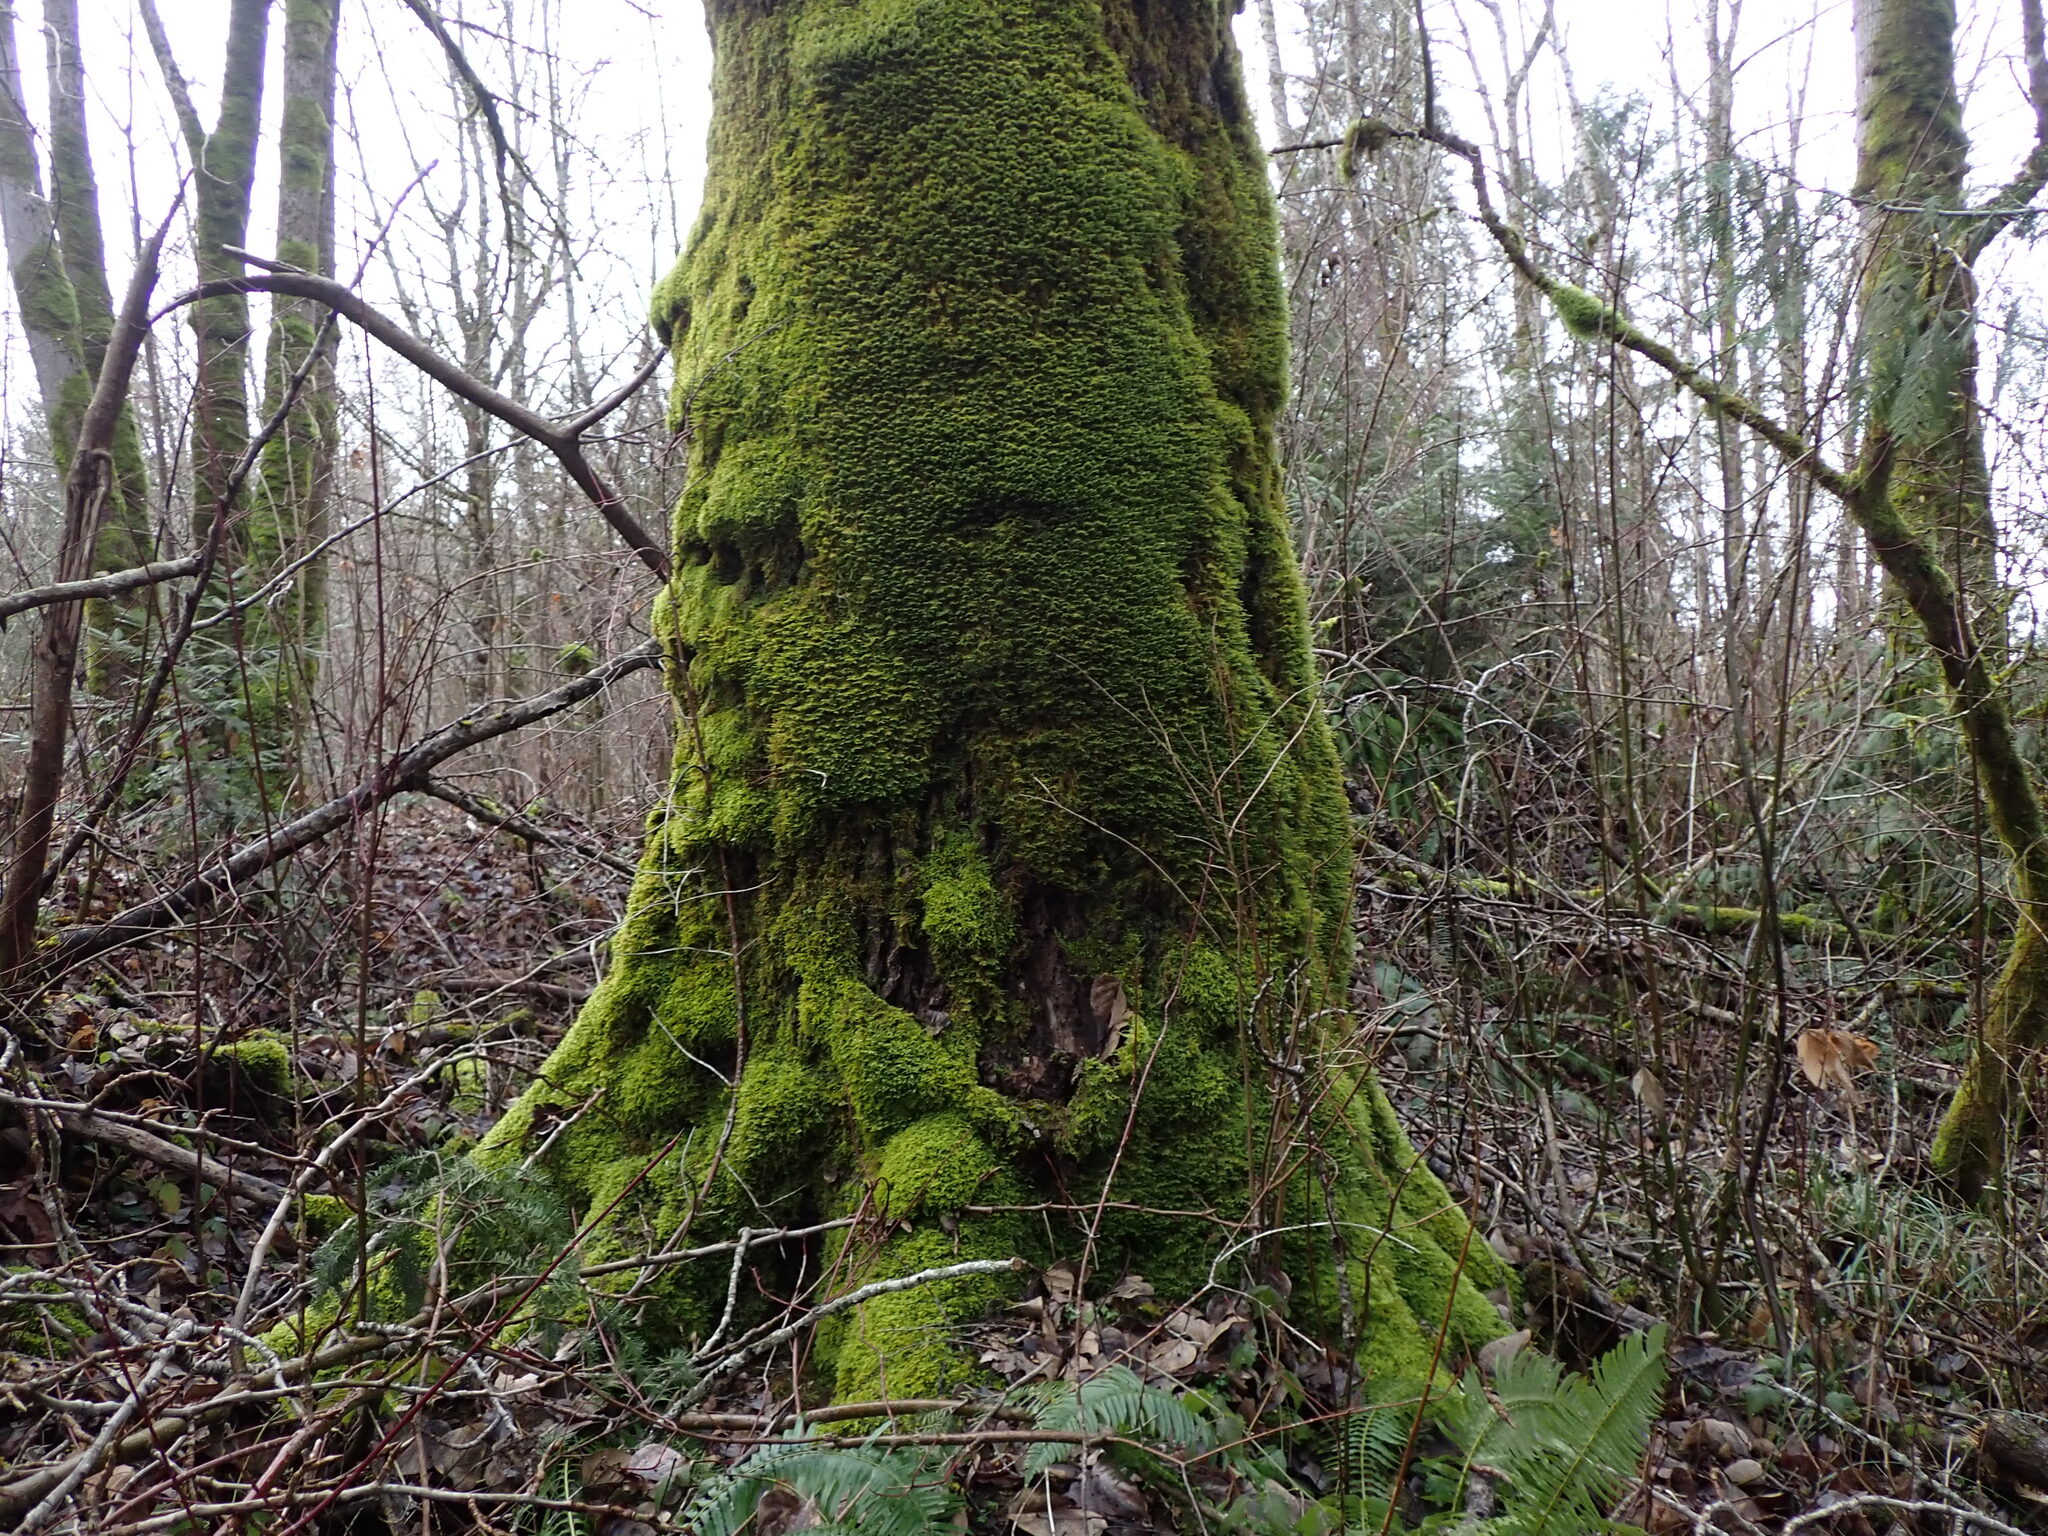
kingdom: Plantae
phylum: Tracheophyta
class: Magnoliopsida
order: Malpighiales
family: Salicaceae
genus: Populus
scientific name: Populus trichocarpa
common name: Black cottonwood
